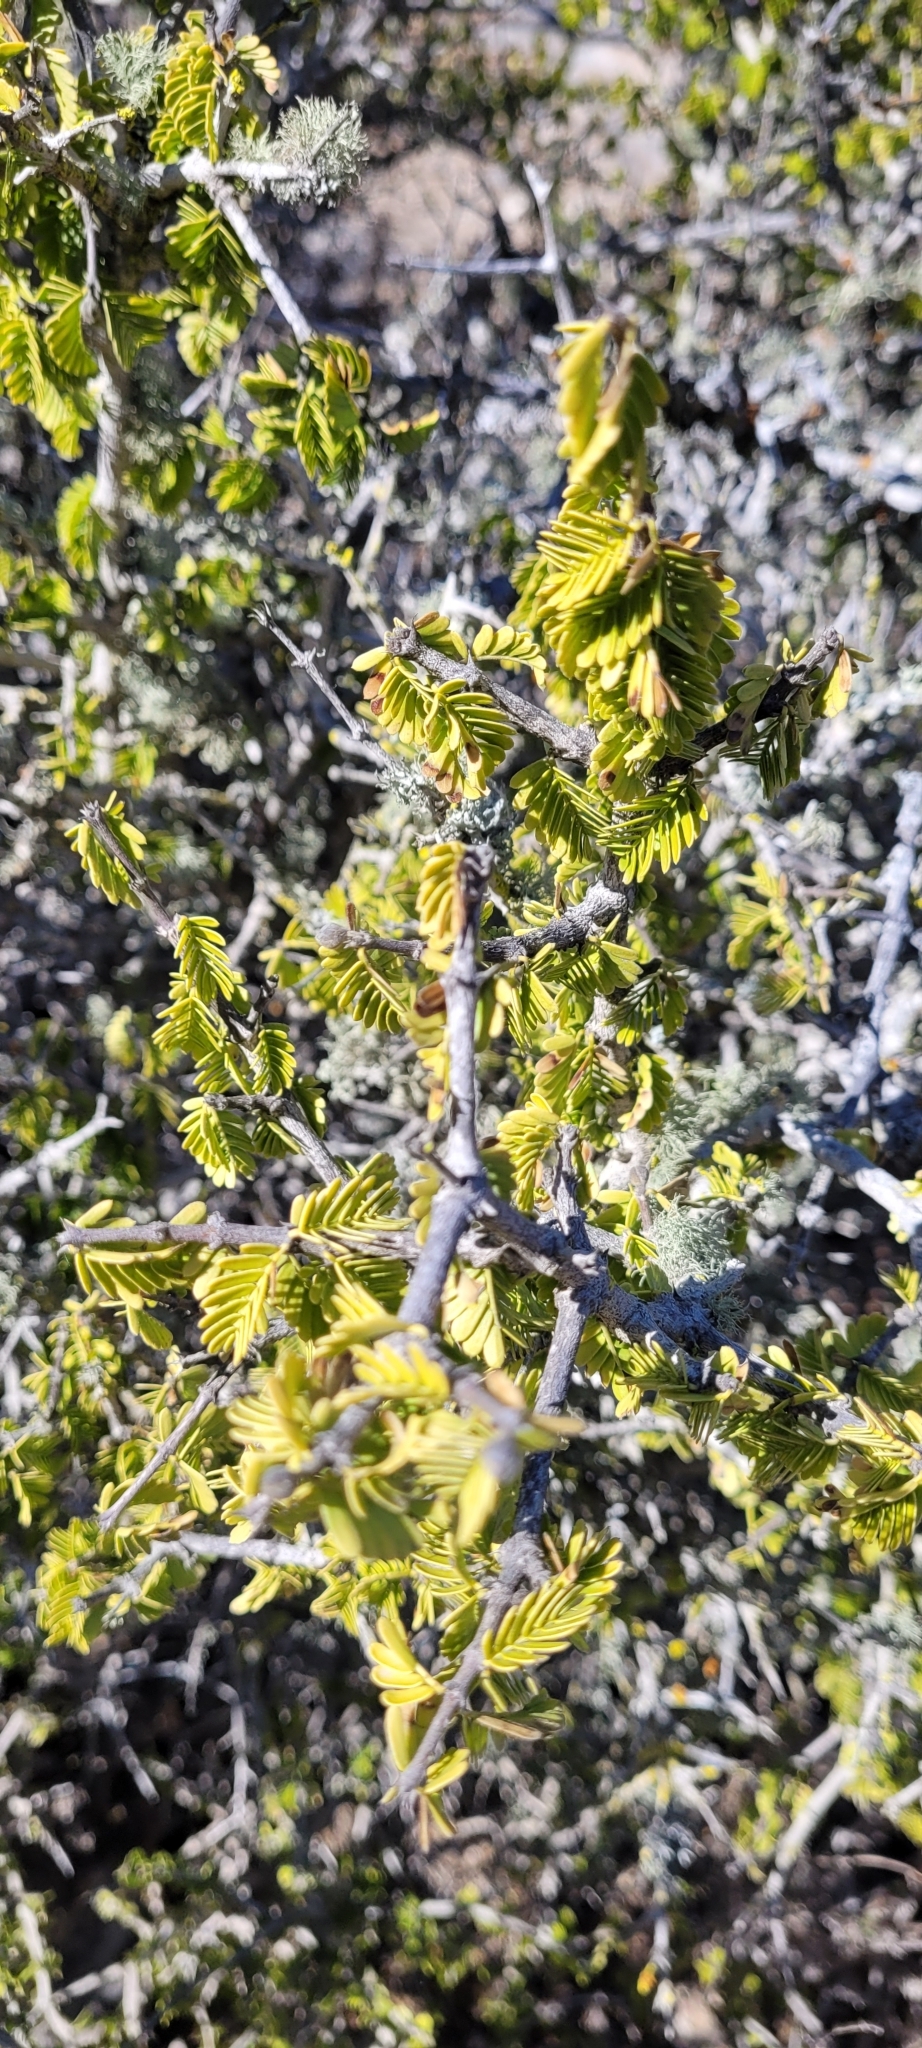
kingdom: Plantae
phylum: Tracheophyta
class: Magnoliopsida
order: Zygophyllales
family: Zygophyllaceae
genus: Porlieria
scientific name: Porlieria chilensis
